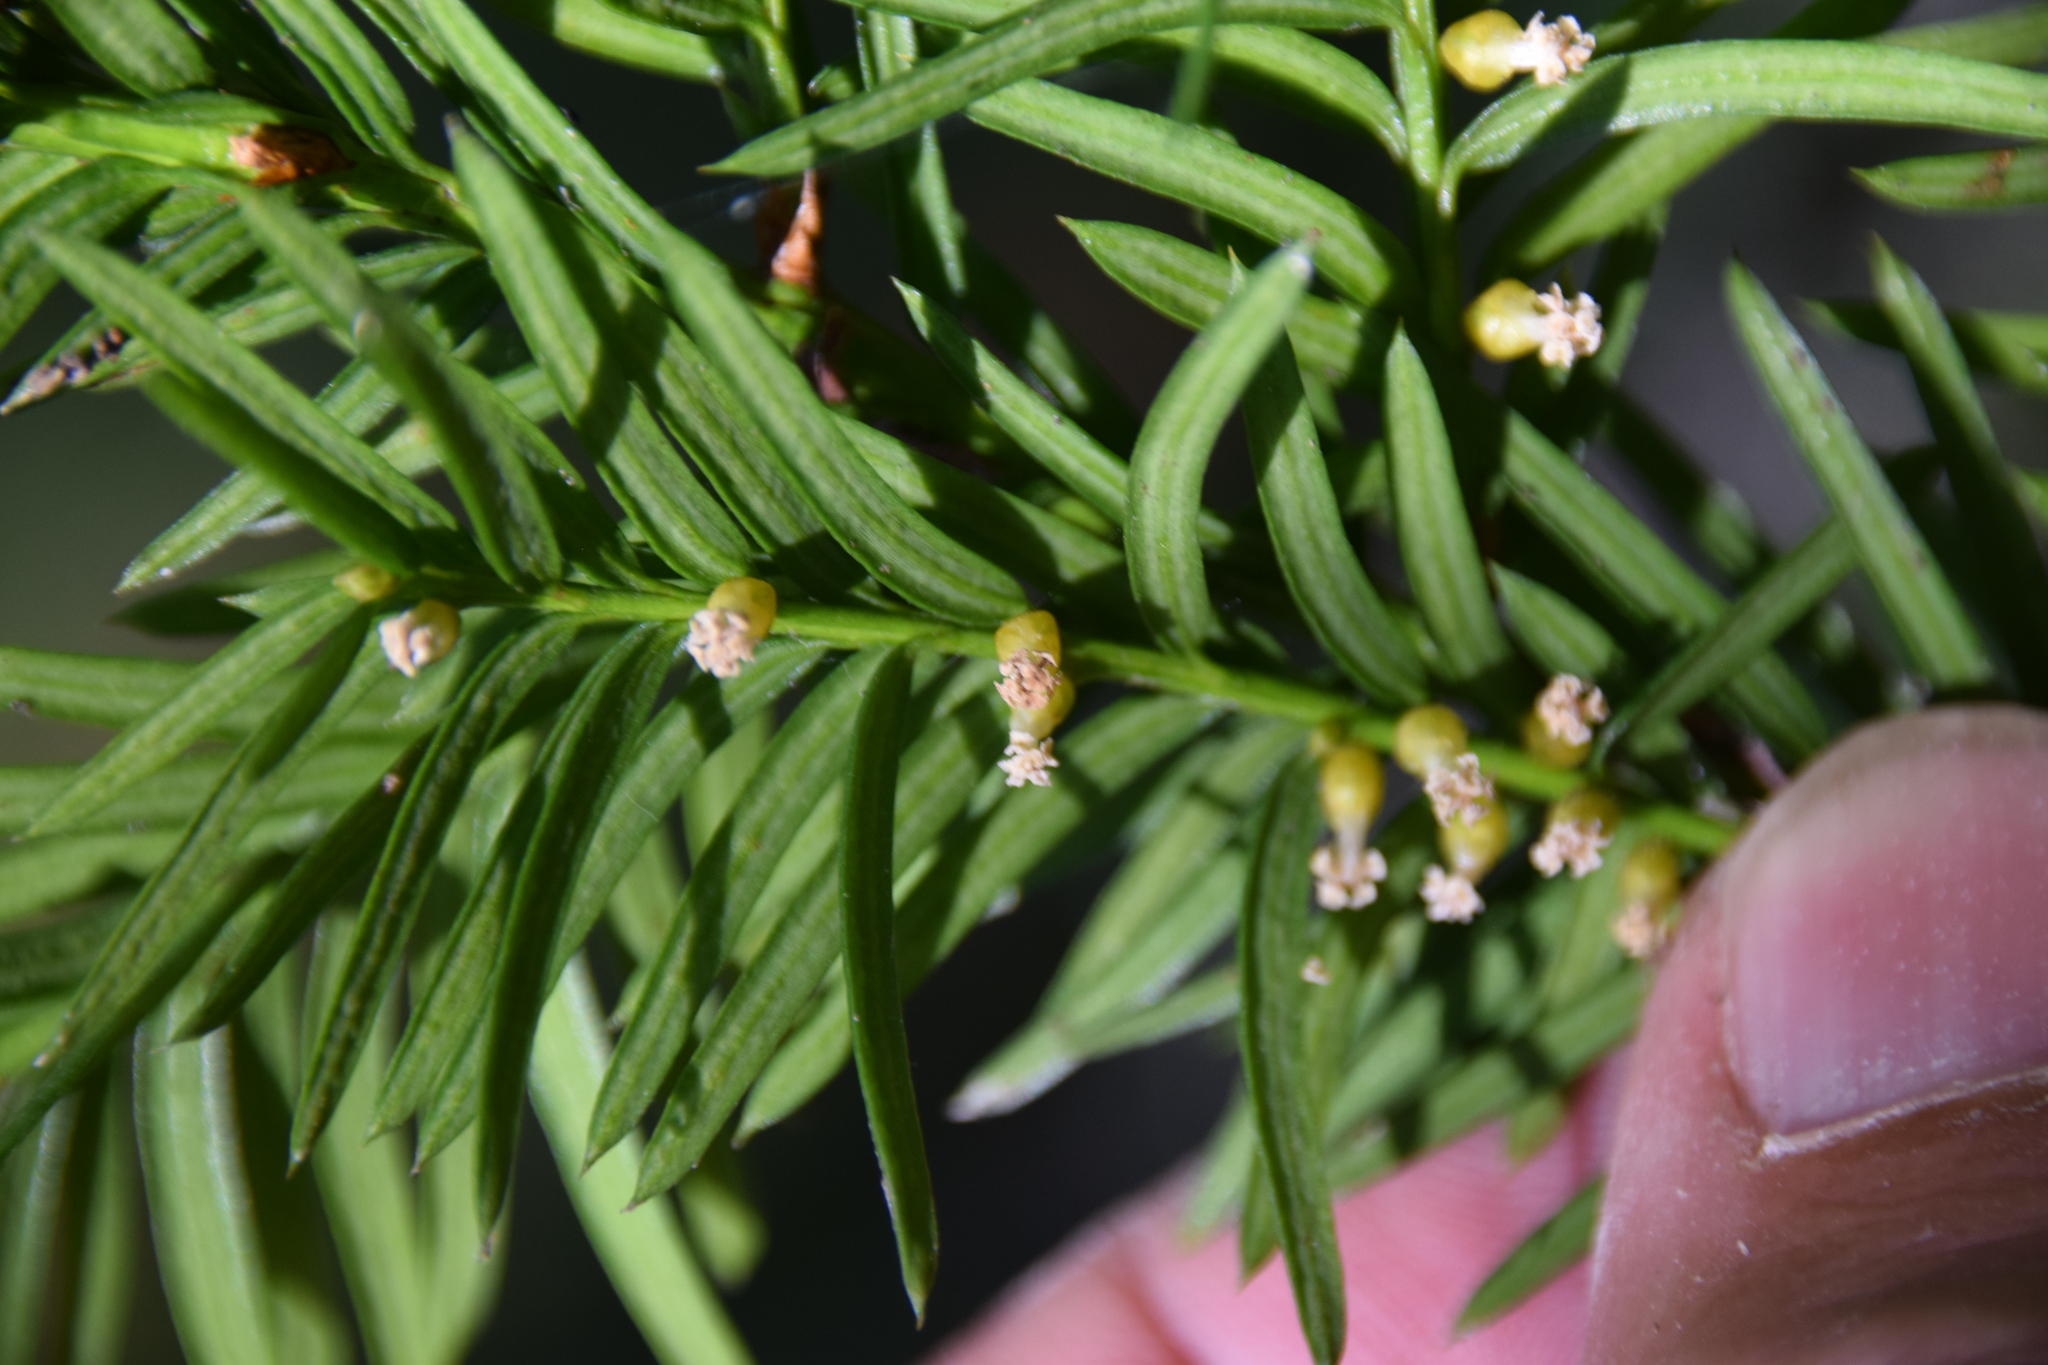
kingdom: Plantae
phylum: Tracheophyta
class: Pinopsida
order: Pinales
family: Taxaceae
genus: Taxus
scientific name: Taxus canadensis
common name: American yew
